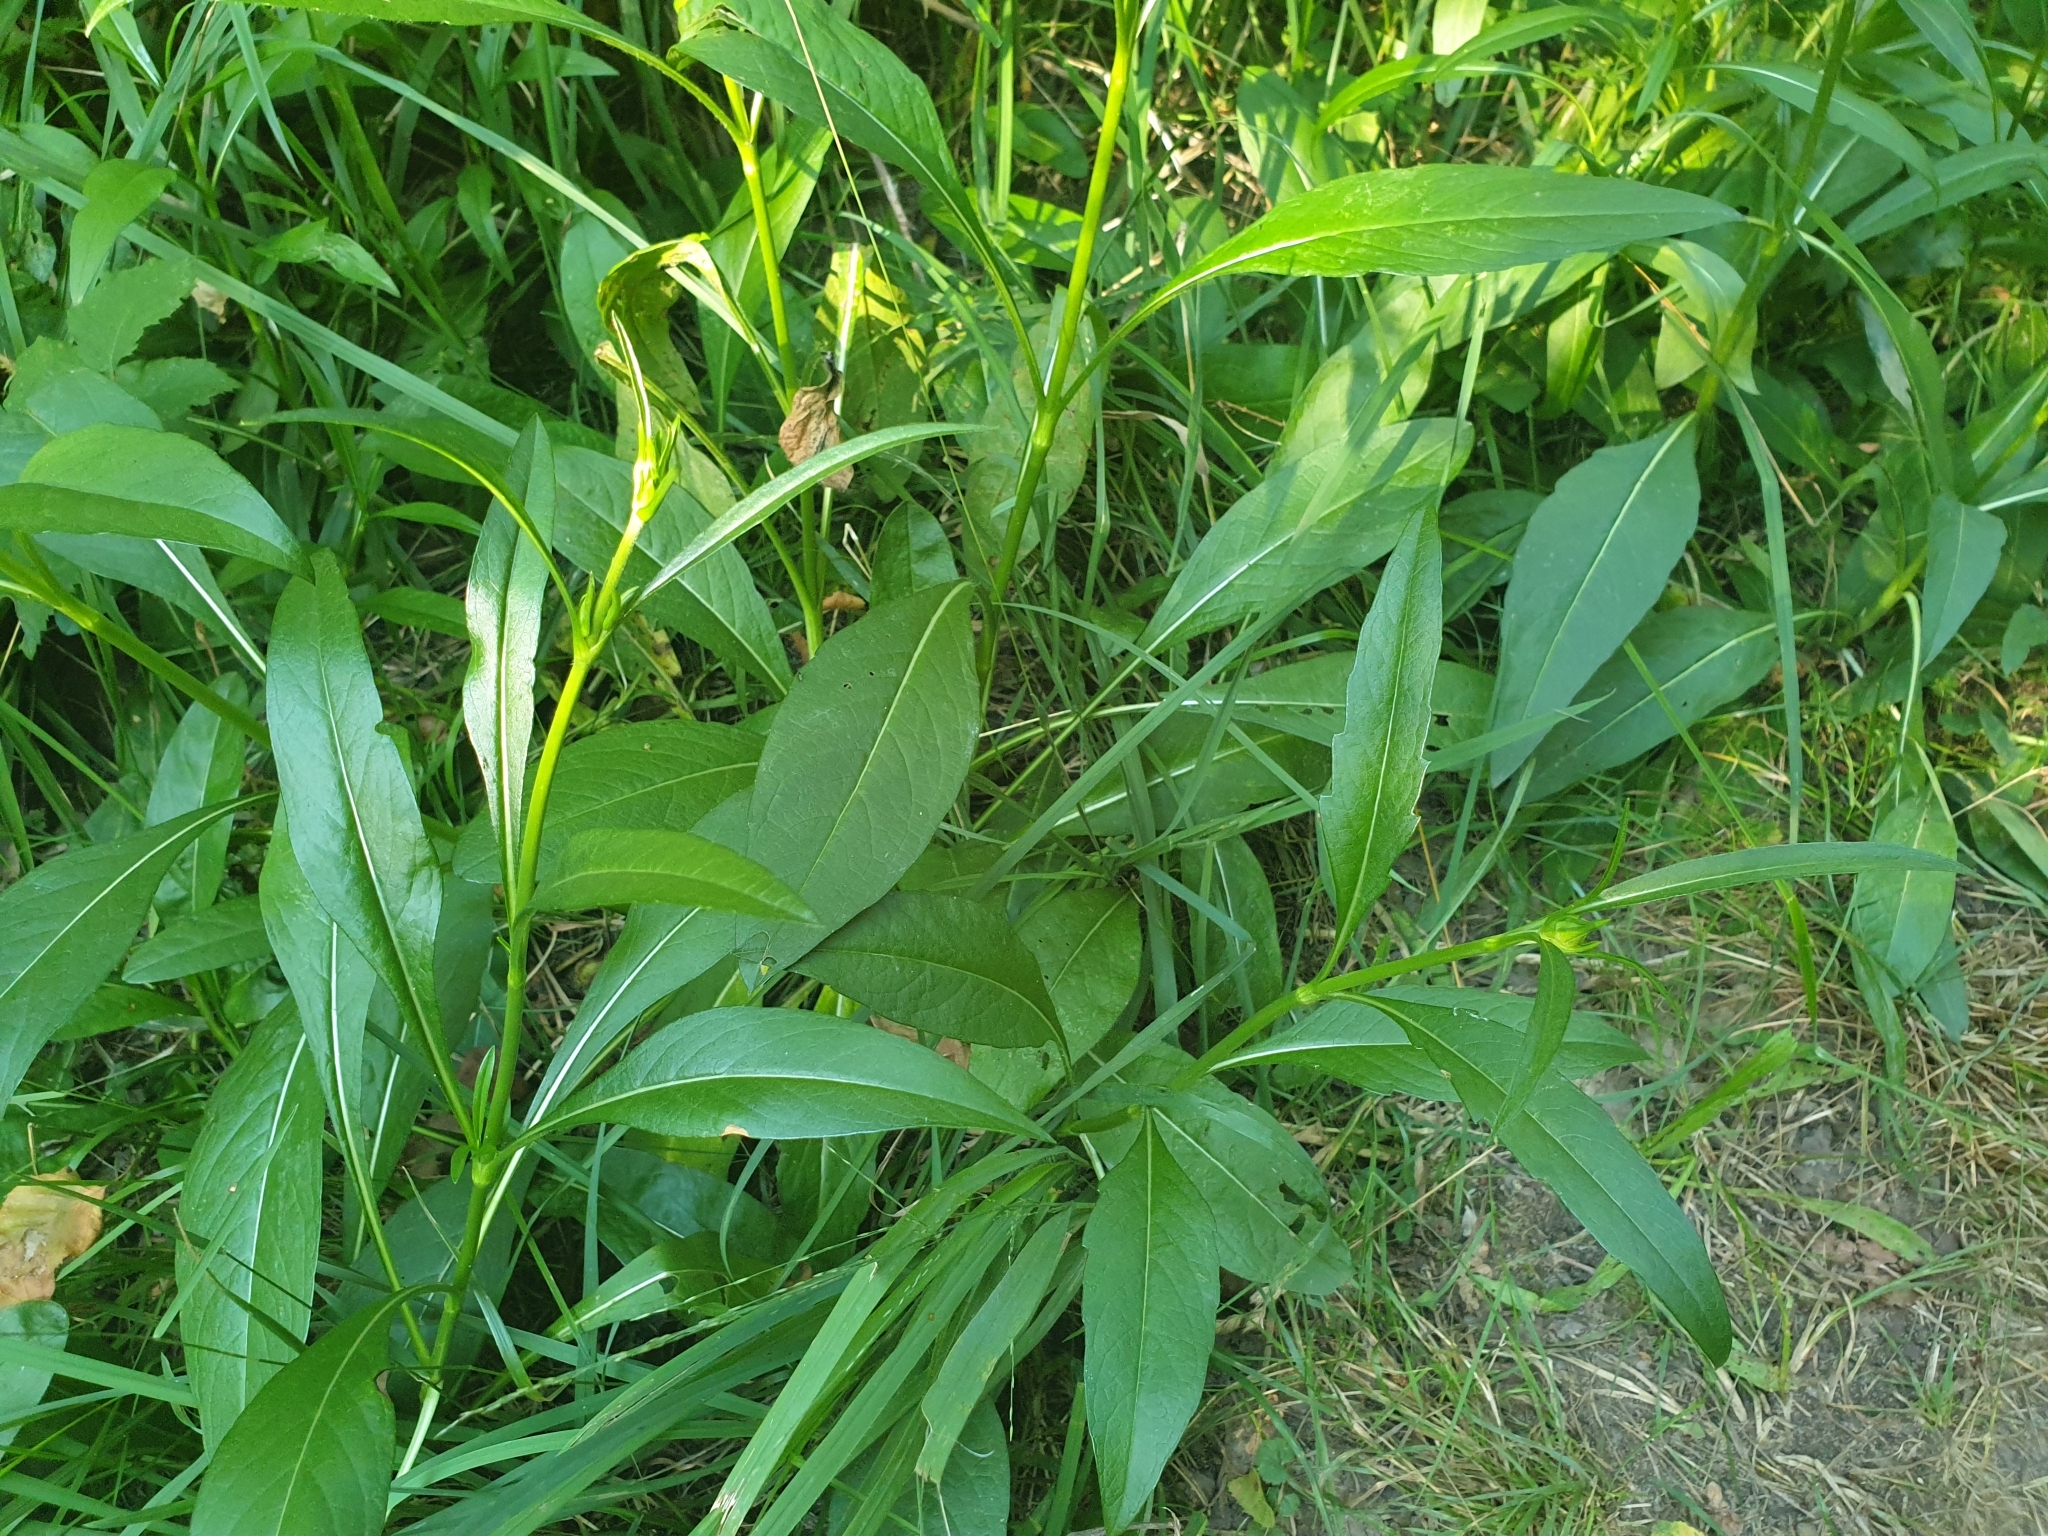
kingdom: Plantae
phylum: Tracheophyta
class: Magnoliopsida
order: Dipsacales
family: Caprifoliaceae
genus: Succisa
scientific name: Succisa pratensis
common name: Devil's-bit
